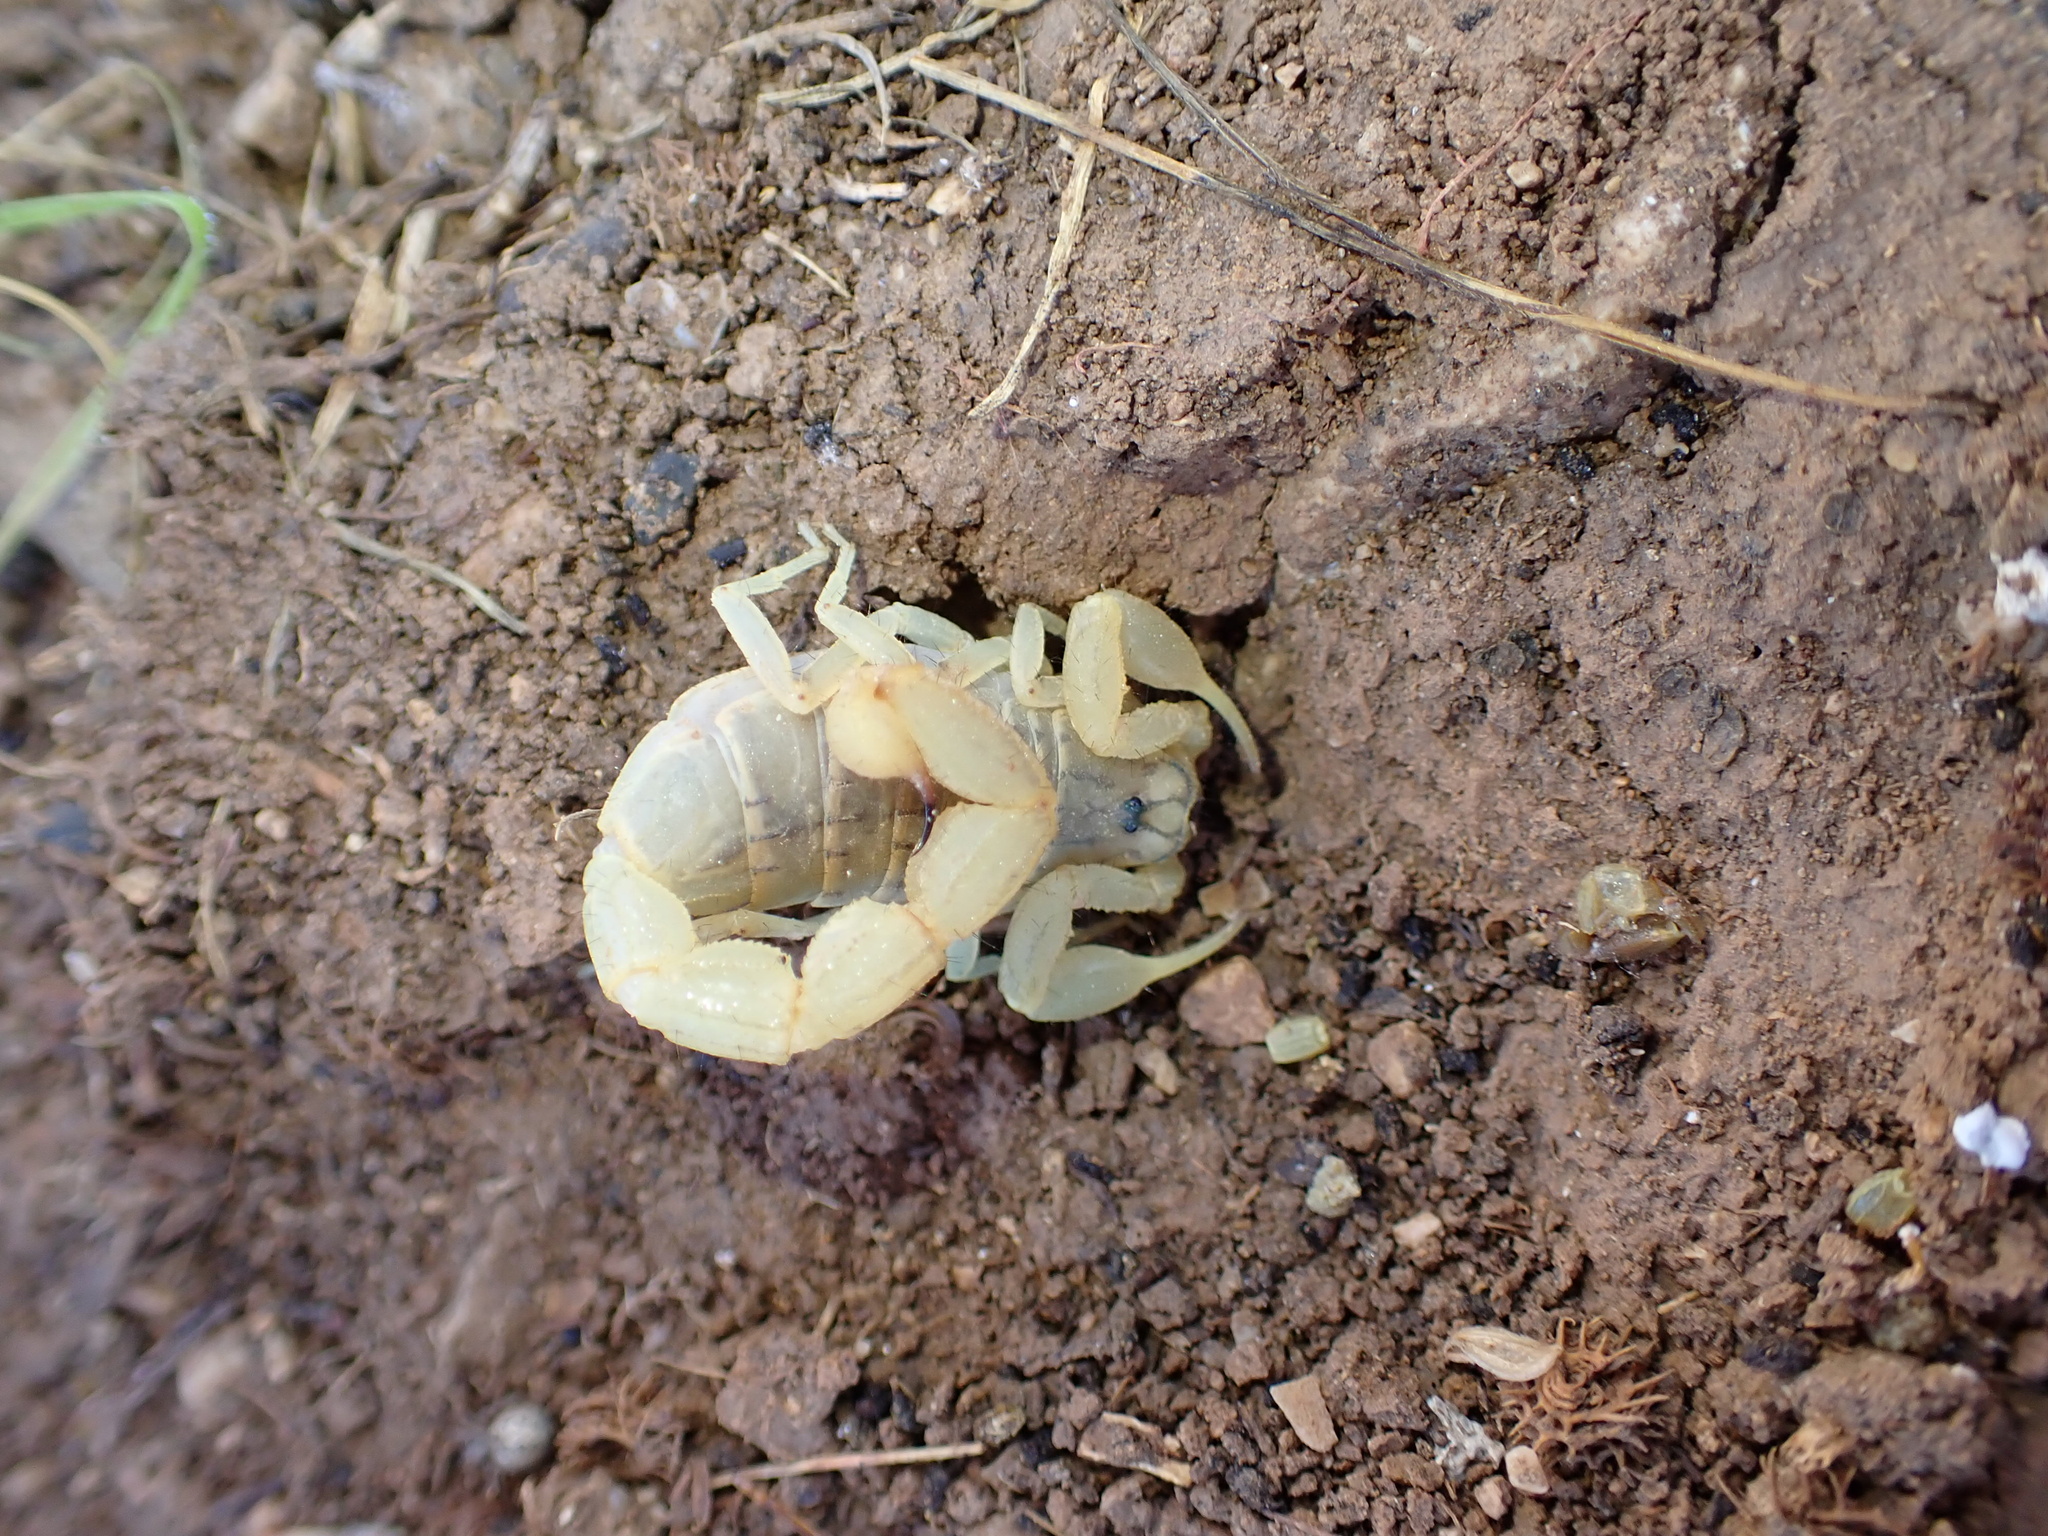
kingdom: Animalia
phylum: Arthropoda
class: Arachnida
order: Scorpiones
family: Buthidae
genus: Mesobuthus
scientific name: Mesobuthus phillipsi
